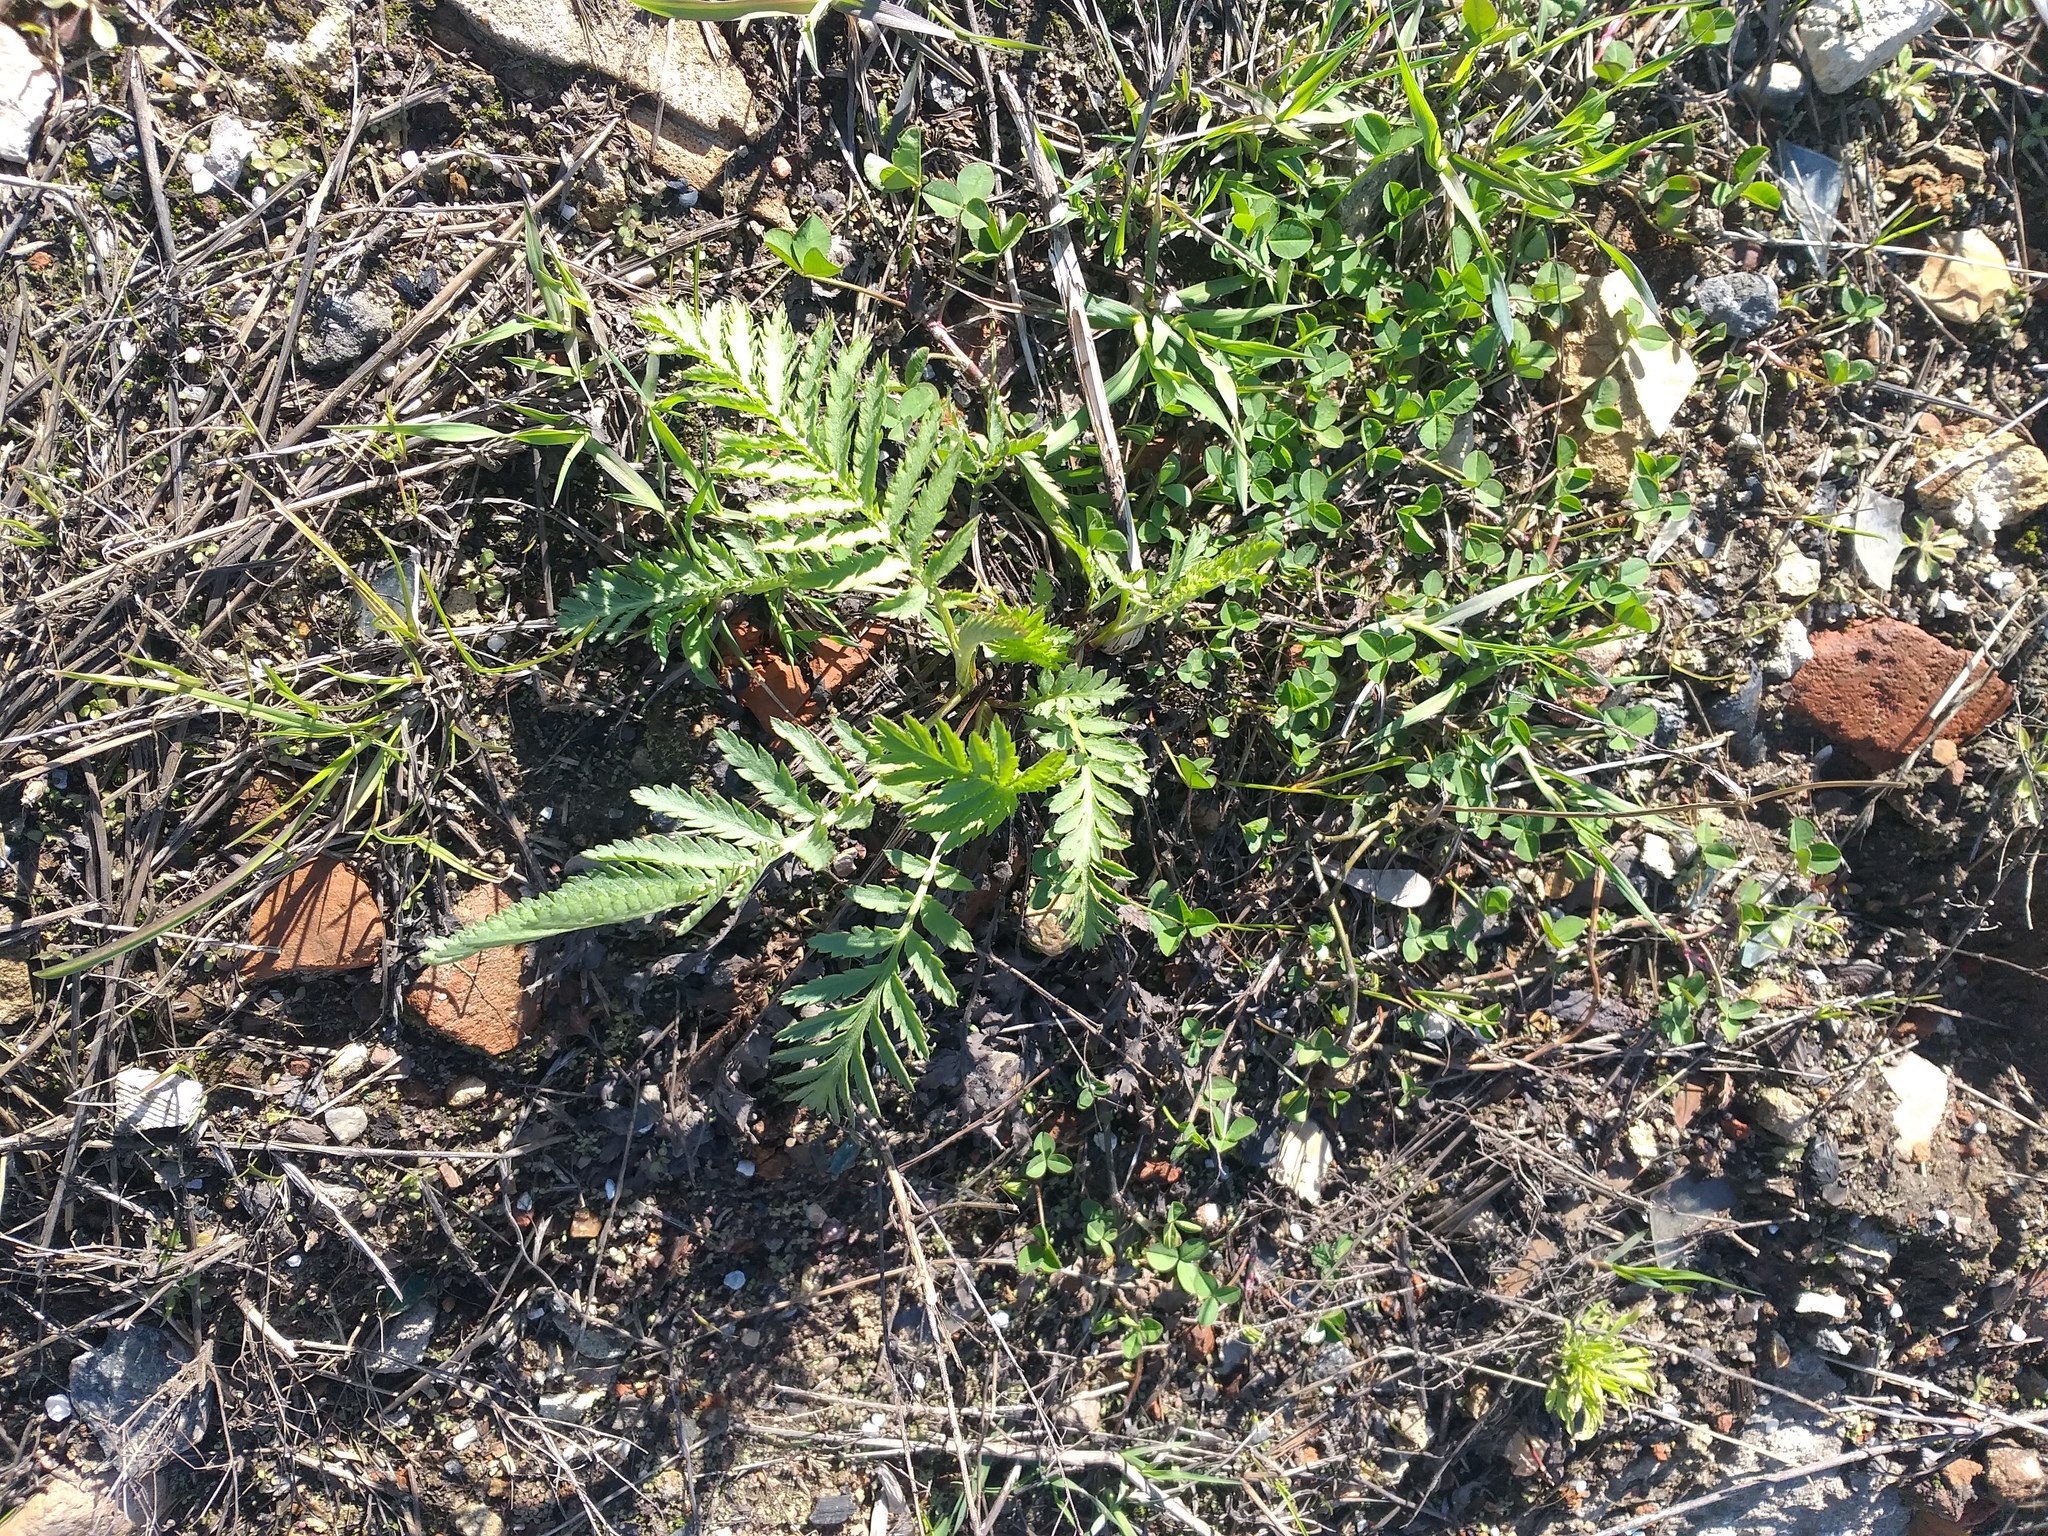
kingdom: Plantae
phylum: Tracheophyta
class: Magnoliopsida
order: Asterales
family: Asteraceae
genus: Tanacetum
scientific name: Tanacetum vulgare
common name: Common tansy
